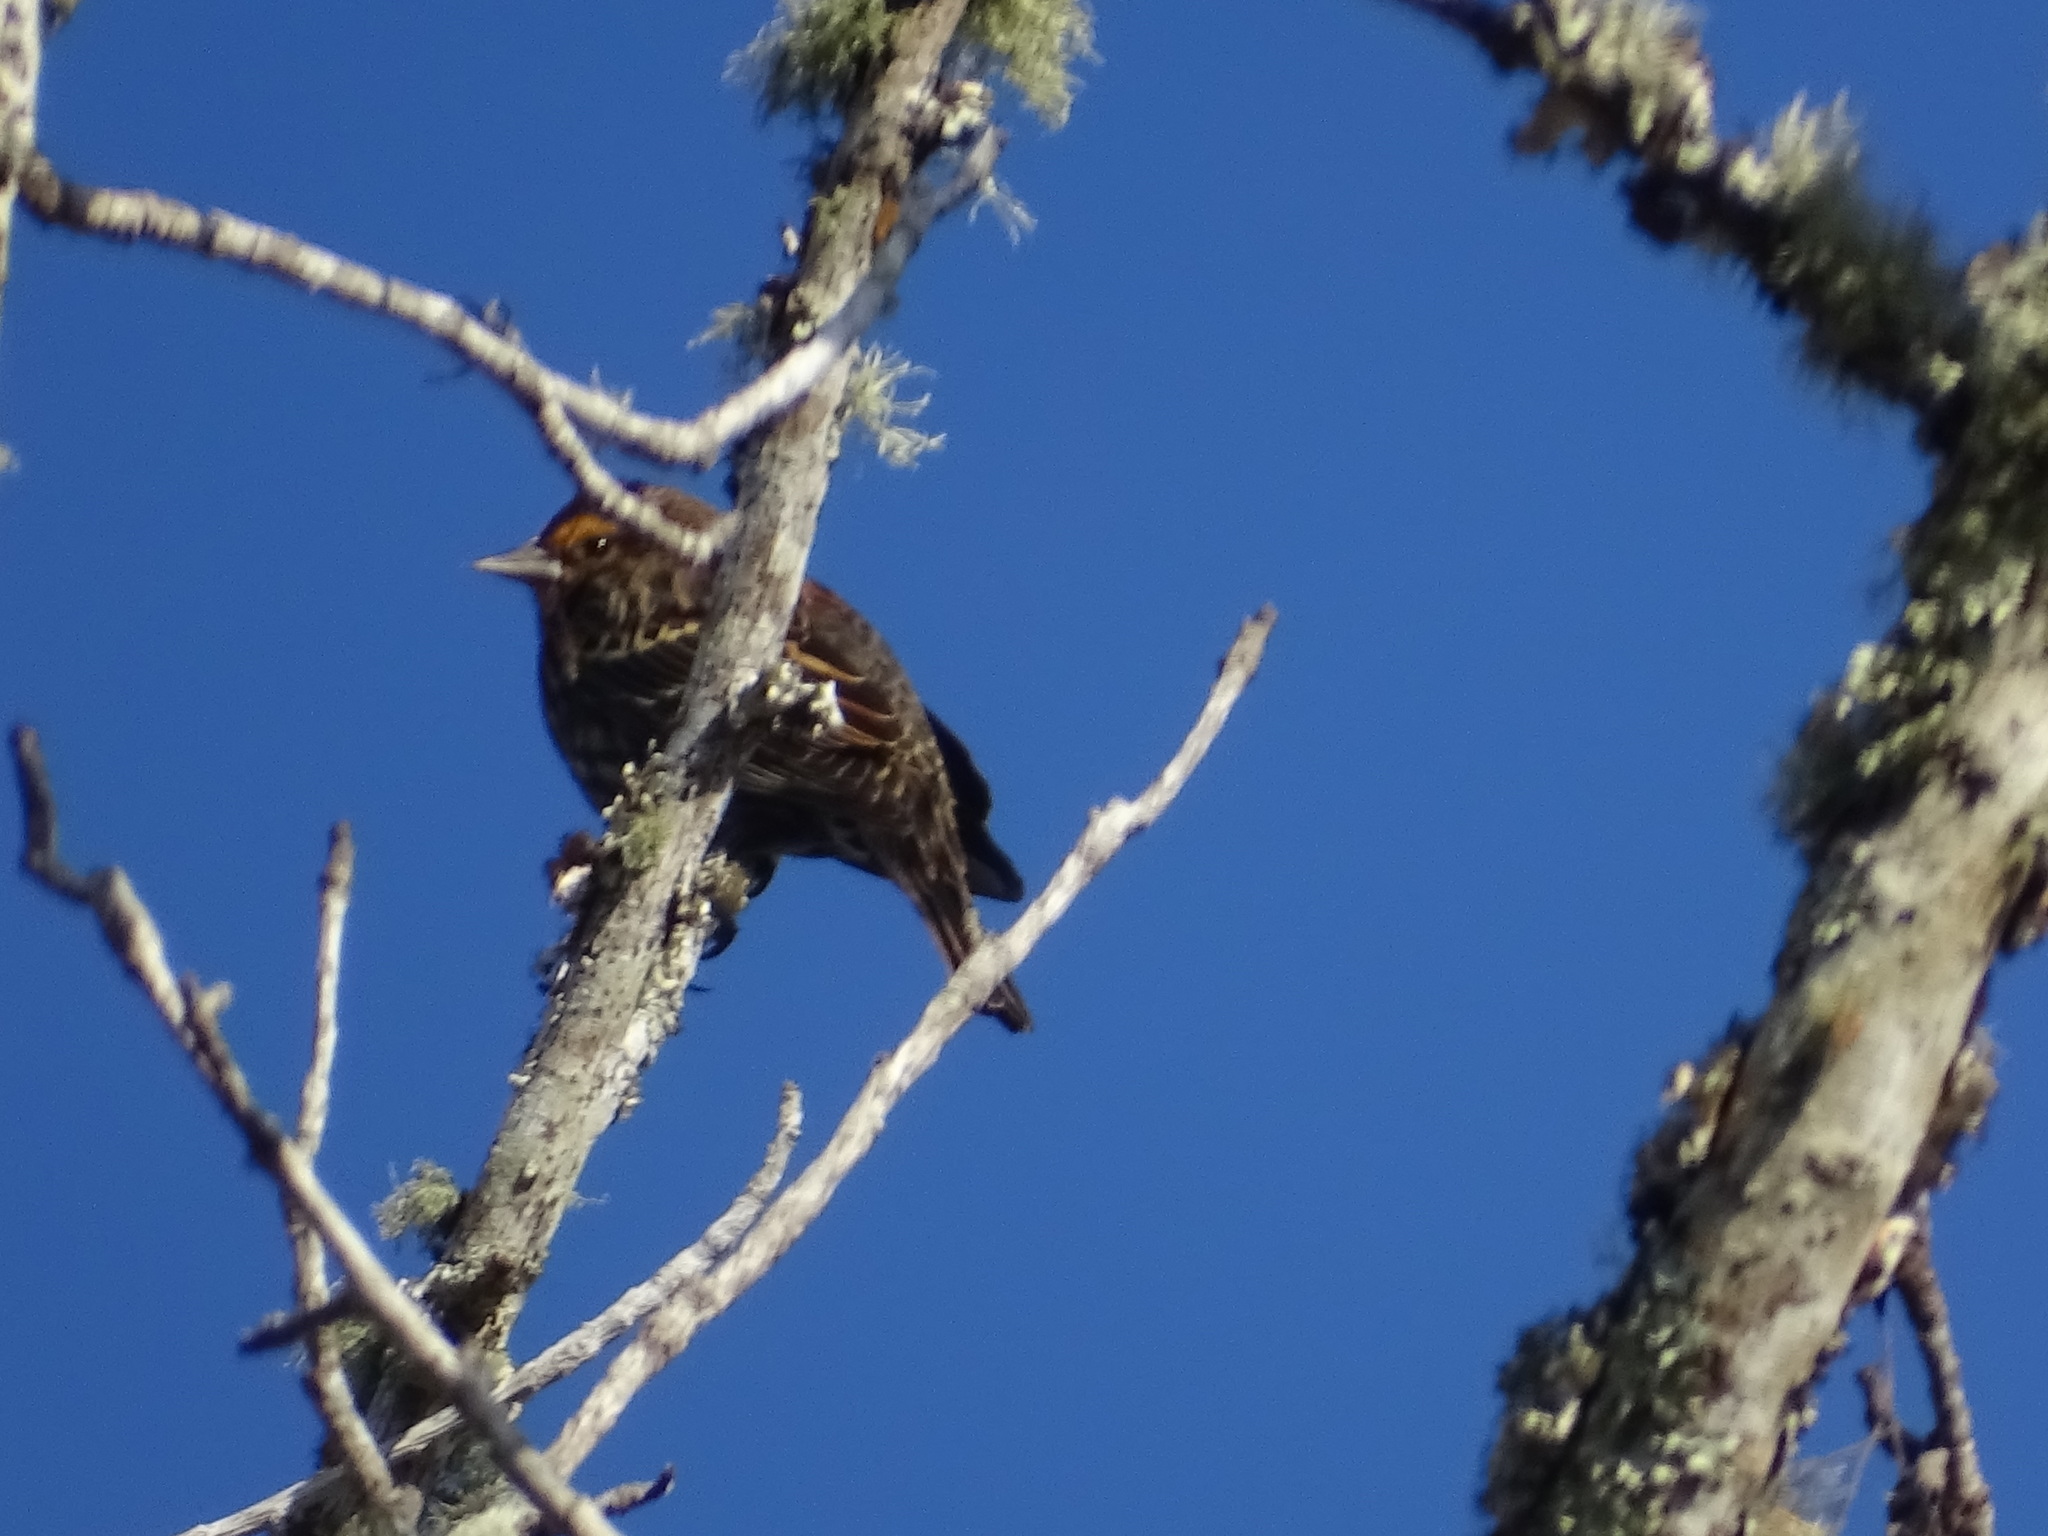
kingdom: Animalia
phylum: Chordata
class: Aves
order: Passeriformes
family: Icteridae
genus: Agelaius
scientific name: Agelaius phoeniceus
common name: Red-winged blackbird
